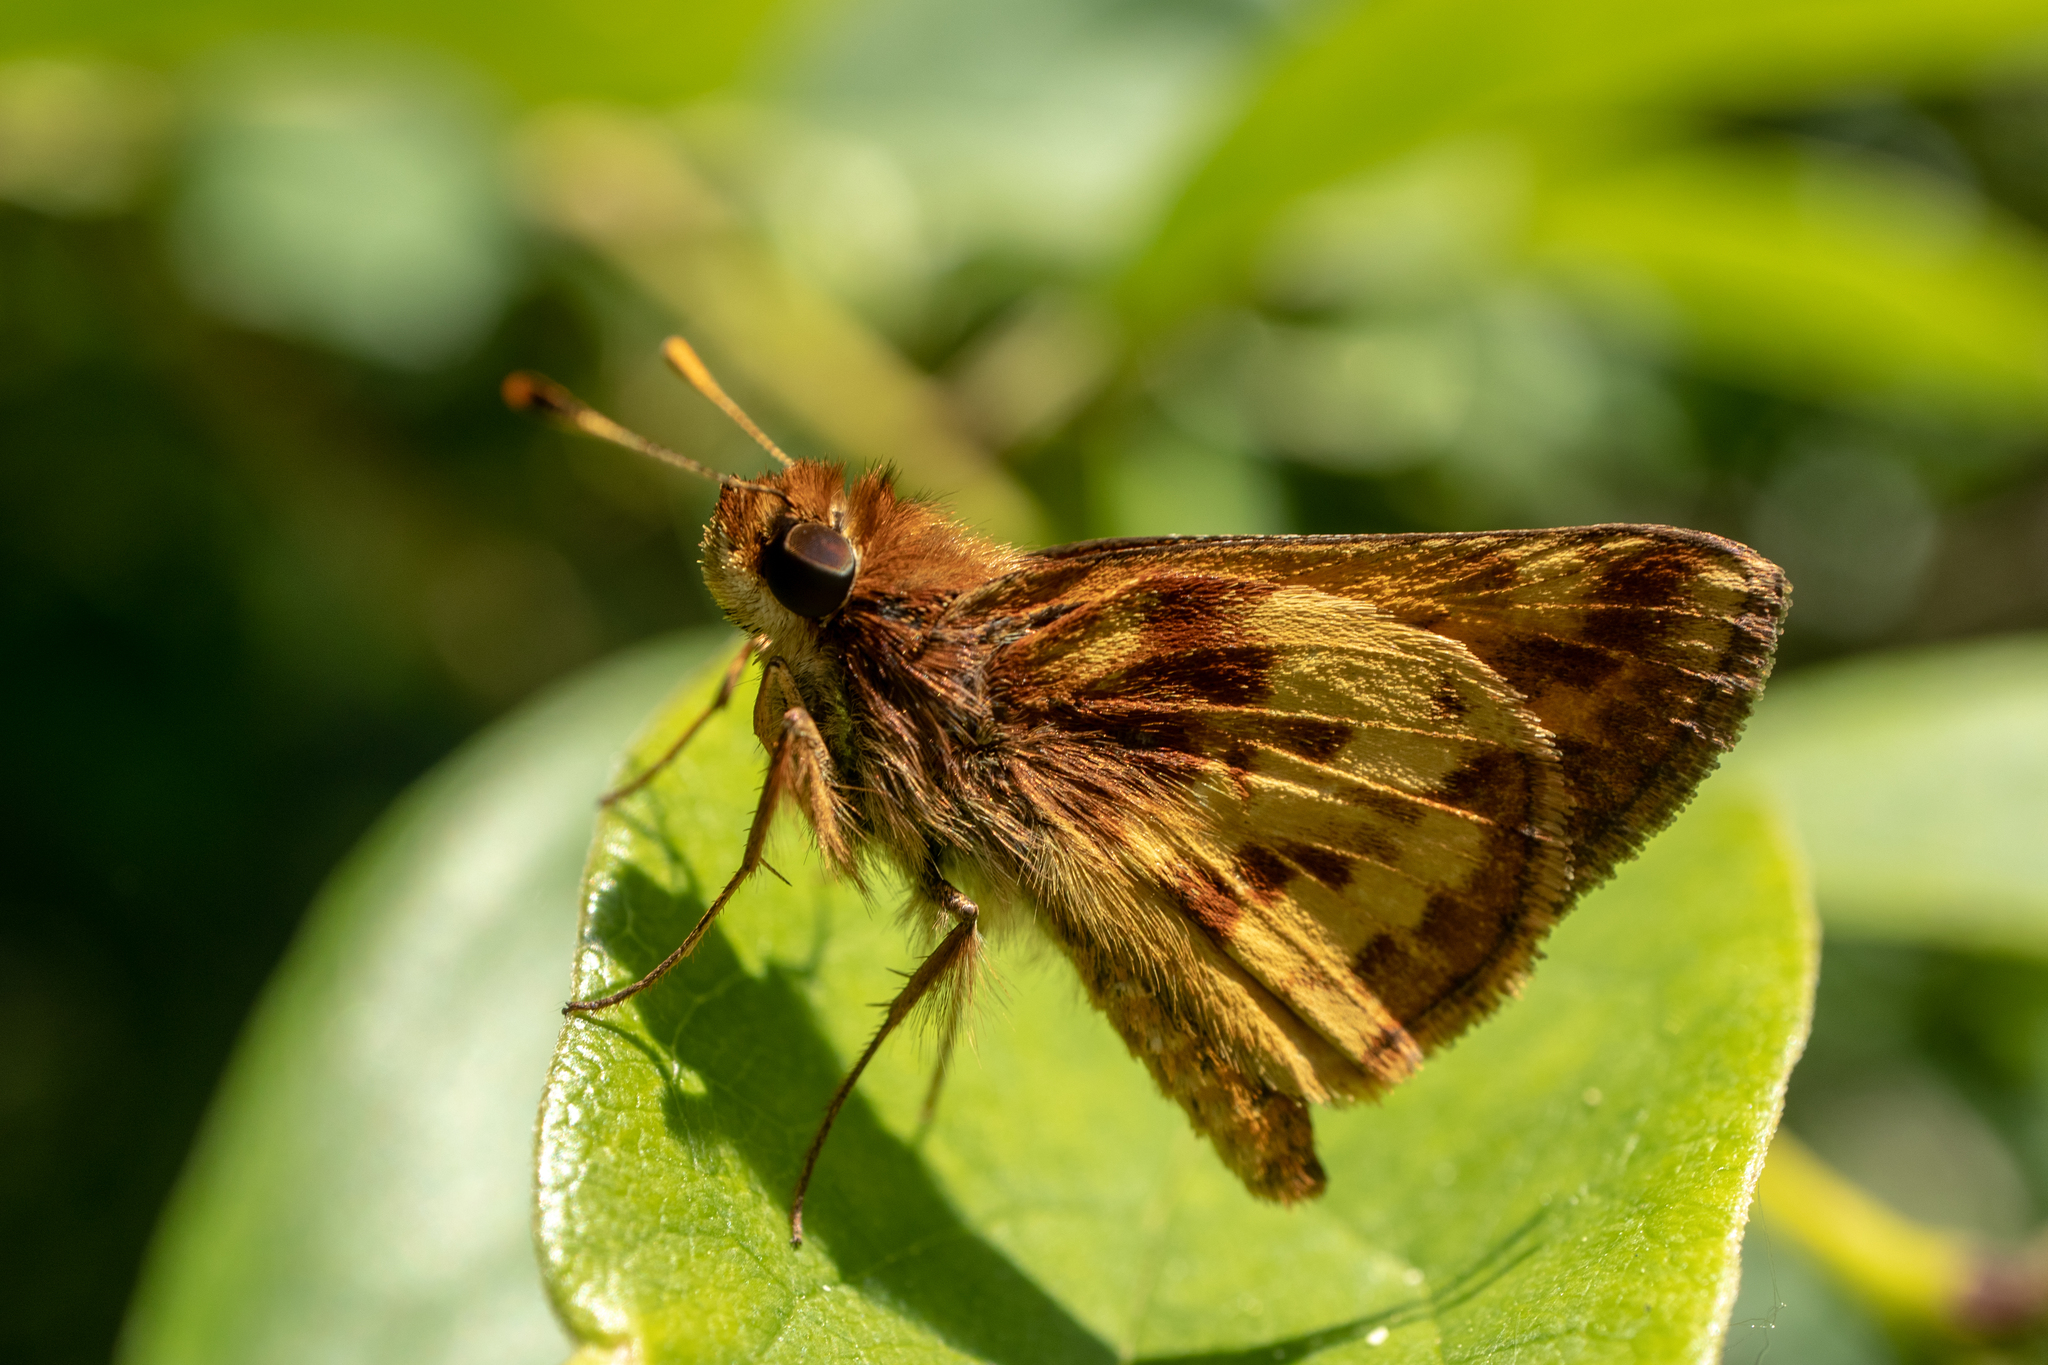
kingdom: Animalia
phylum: Arthropoda
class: Insecta
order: Lepidoptera
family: Hesperiidae
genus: Lon
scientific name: Lon zabulon
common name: Zabulon skipper
